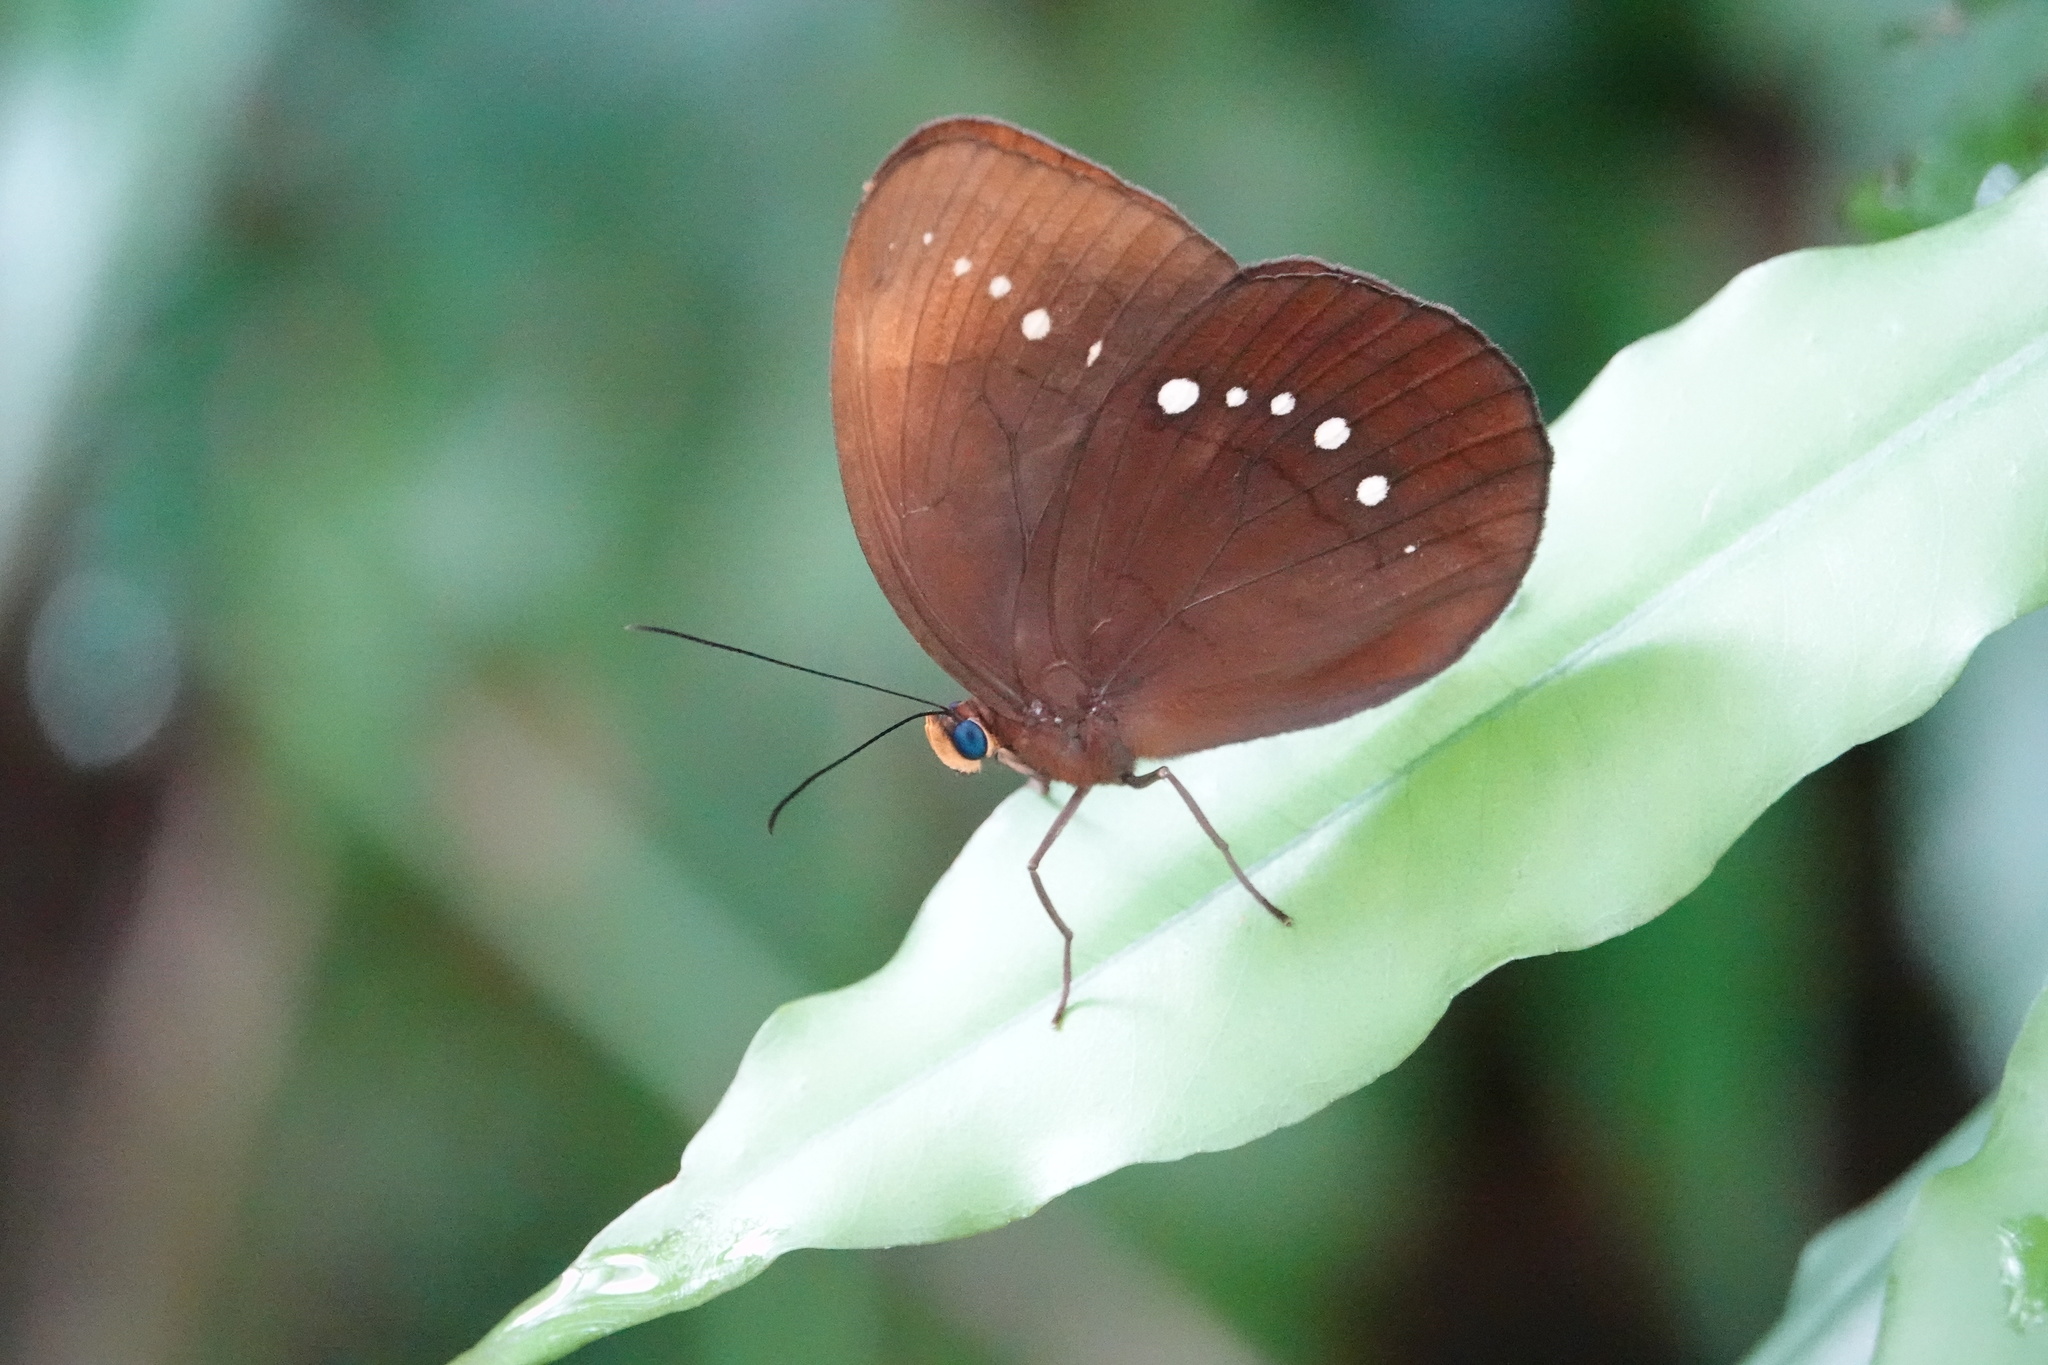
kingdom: Animalia
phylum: Arthropoda
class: Insecta
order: Lepidoptera
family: Nymphalidae
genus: Faunis
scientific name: Faunis eumeus
